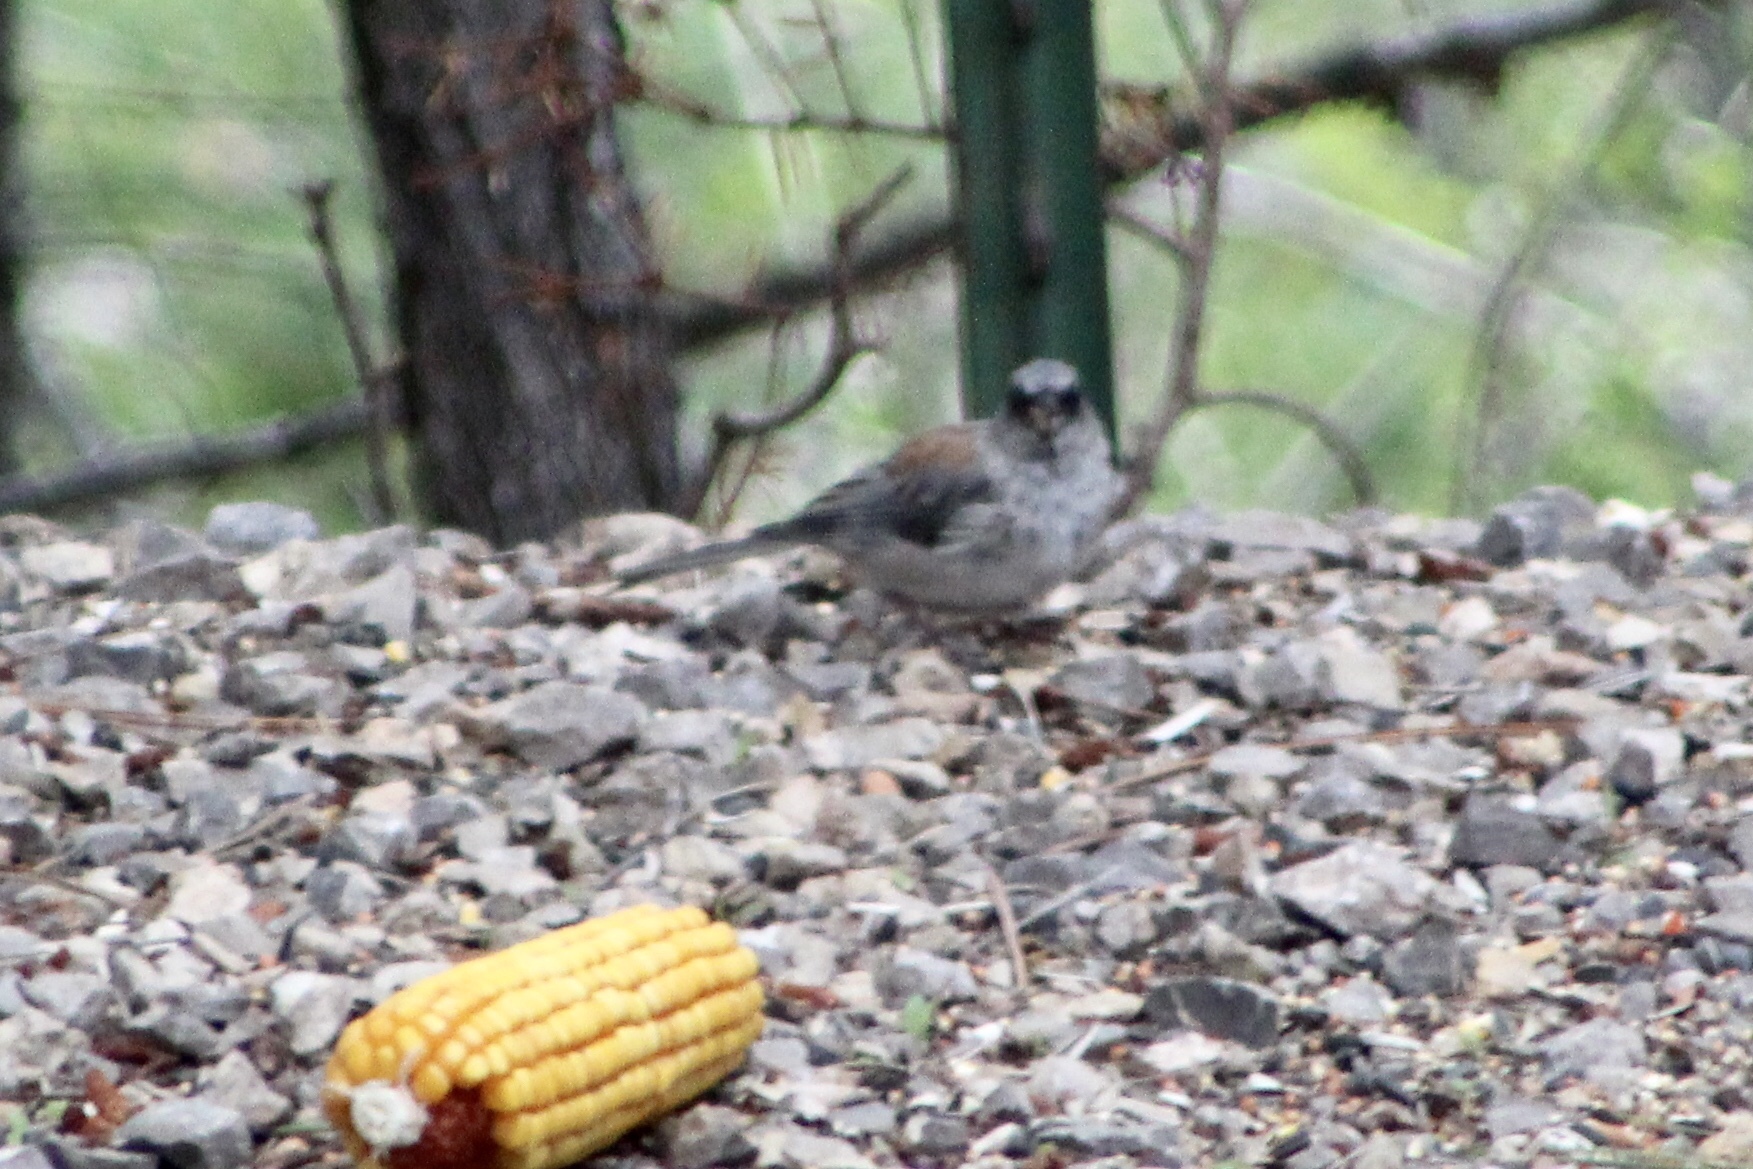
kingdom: Animalia
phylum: Chordata
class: Aves
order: Passeriformes
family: Passerellidae
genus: Junco
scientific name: Junco hyemalis
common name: Dark-eyed junco
